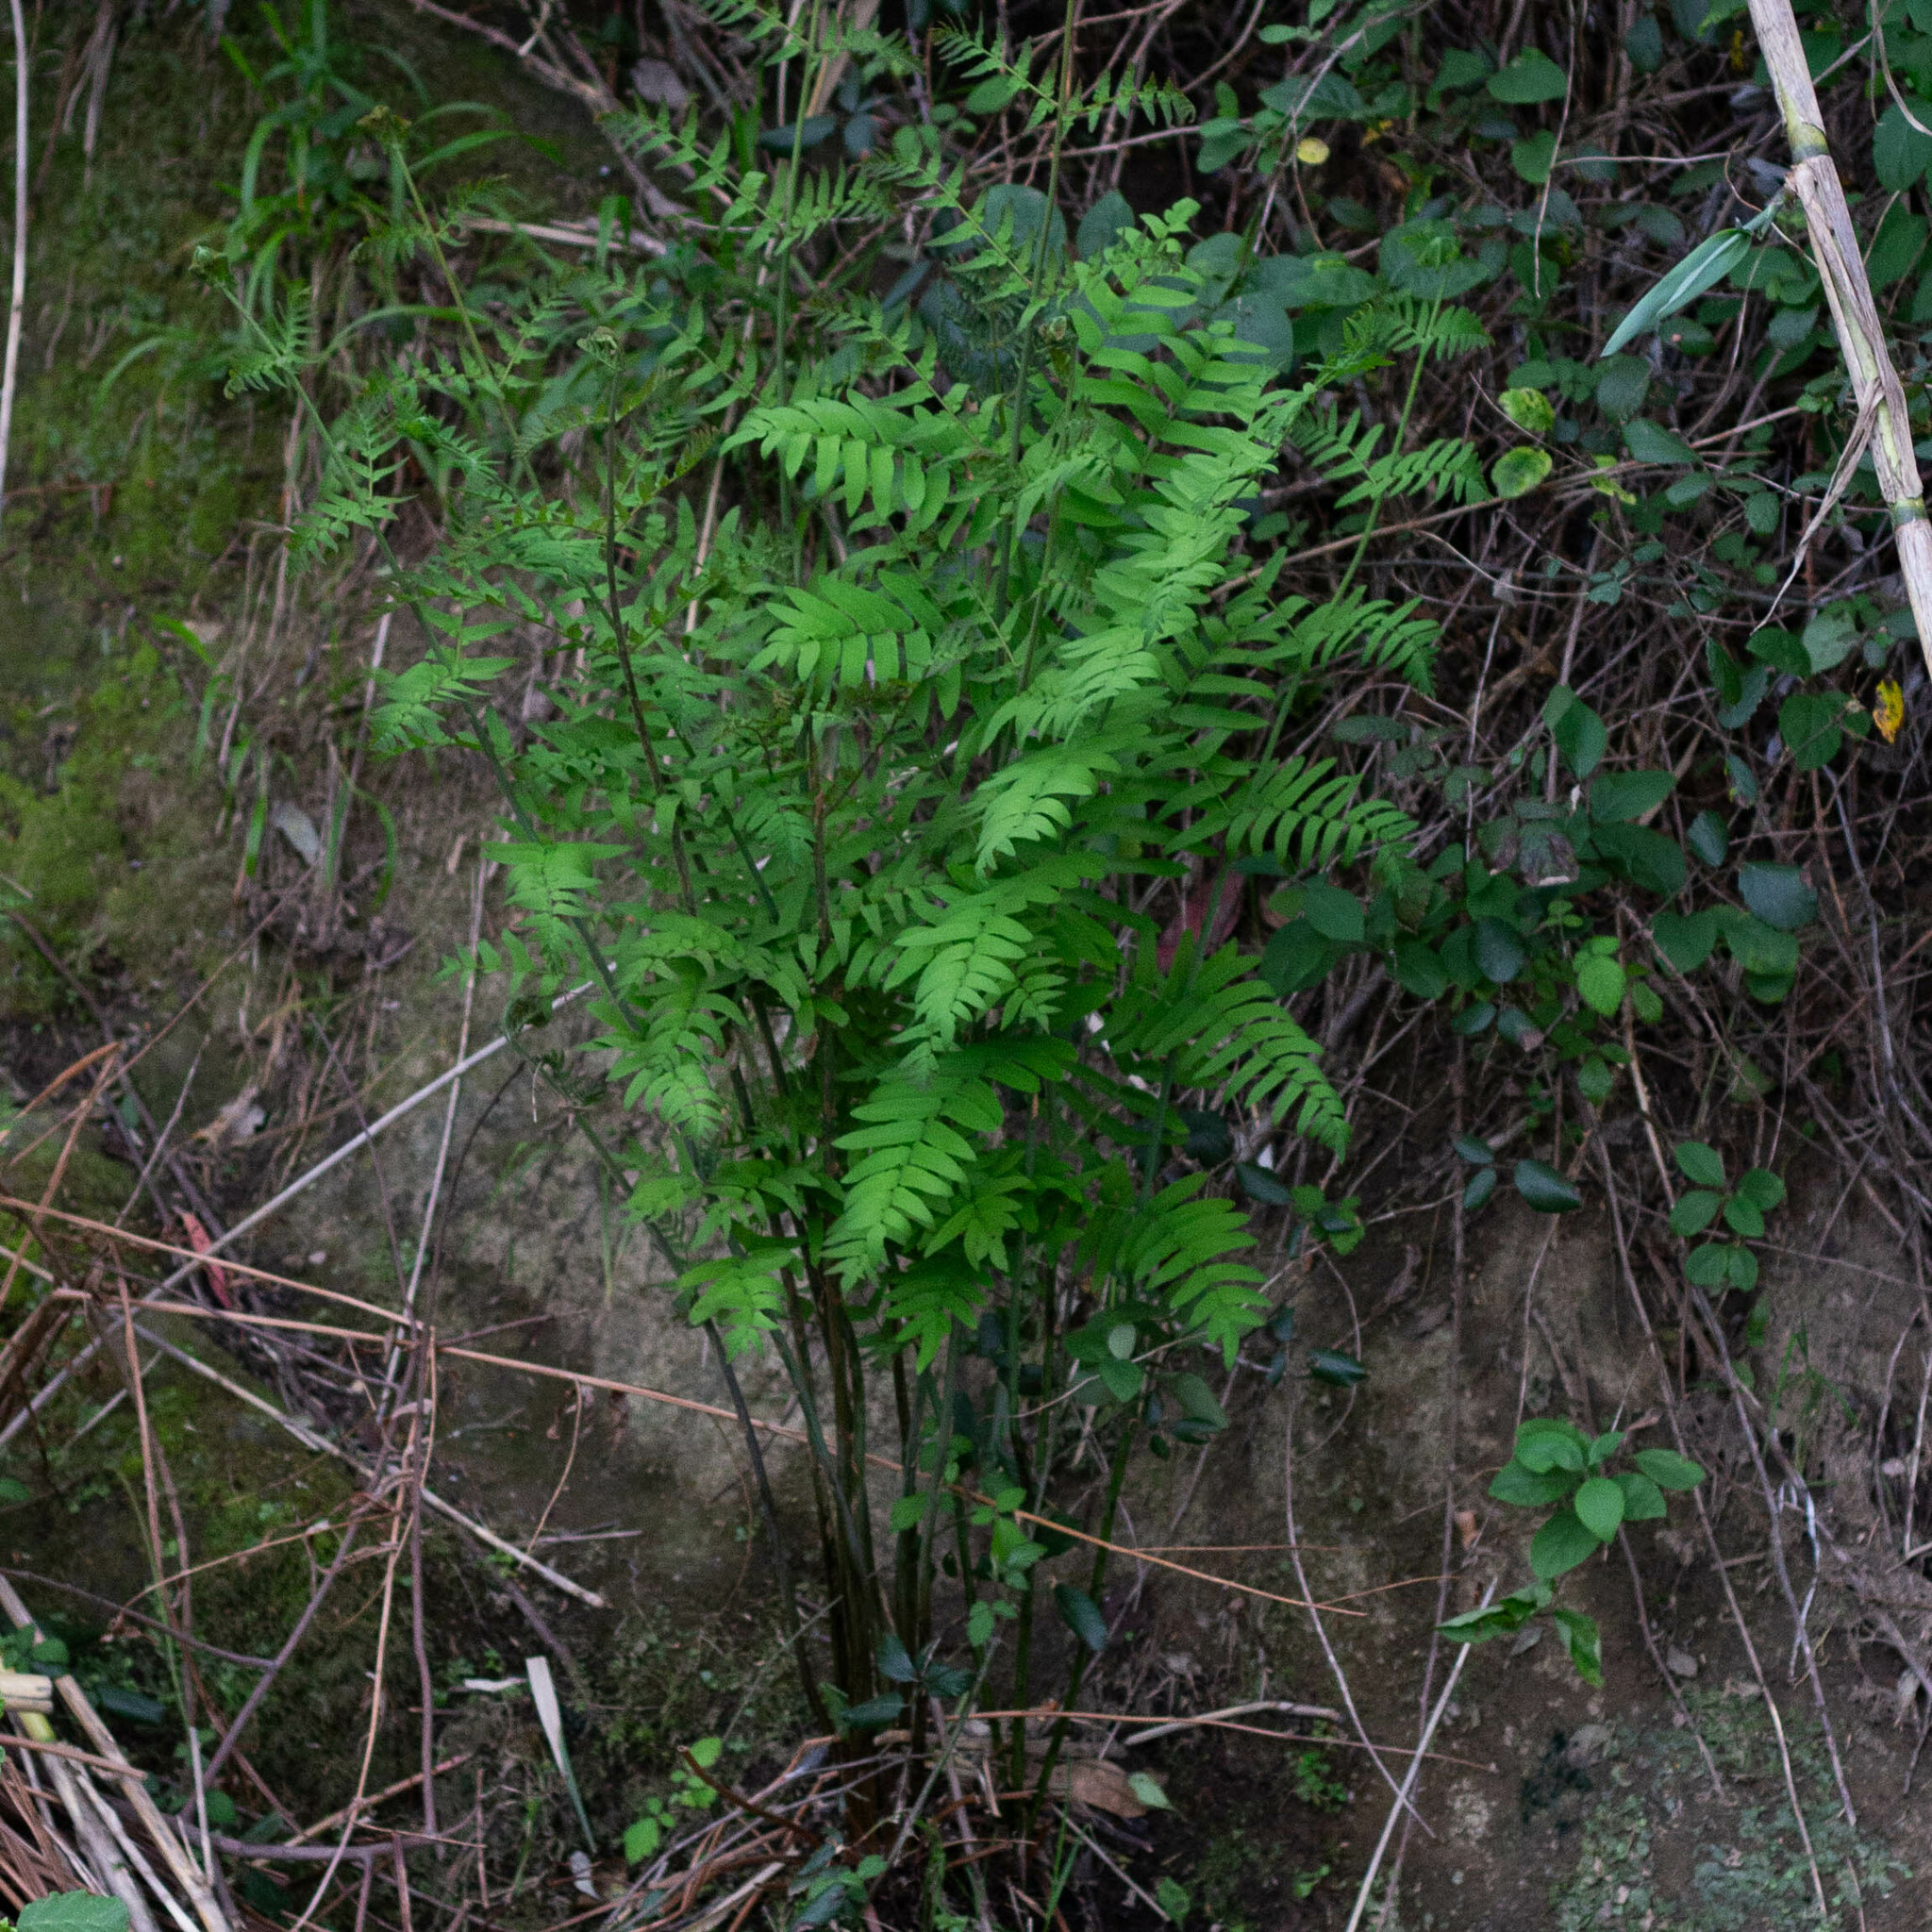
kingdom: Plantae
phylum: Tracheophyta
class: Polypodiopsida
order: Osmundales
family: Osmundaceae
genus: Osmunda
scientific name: Osmunda regalis
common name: Royal fern
